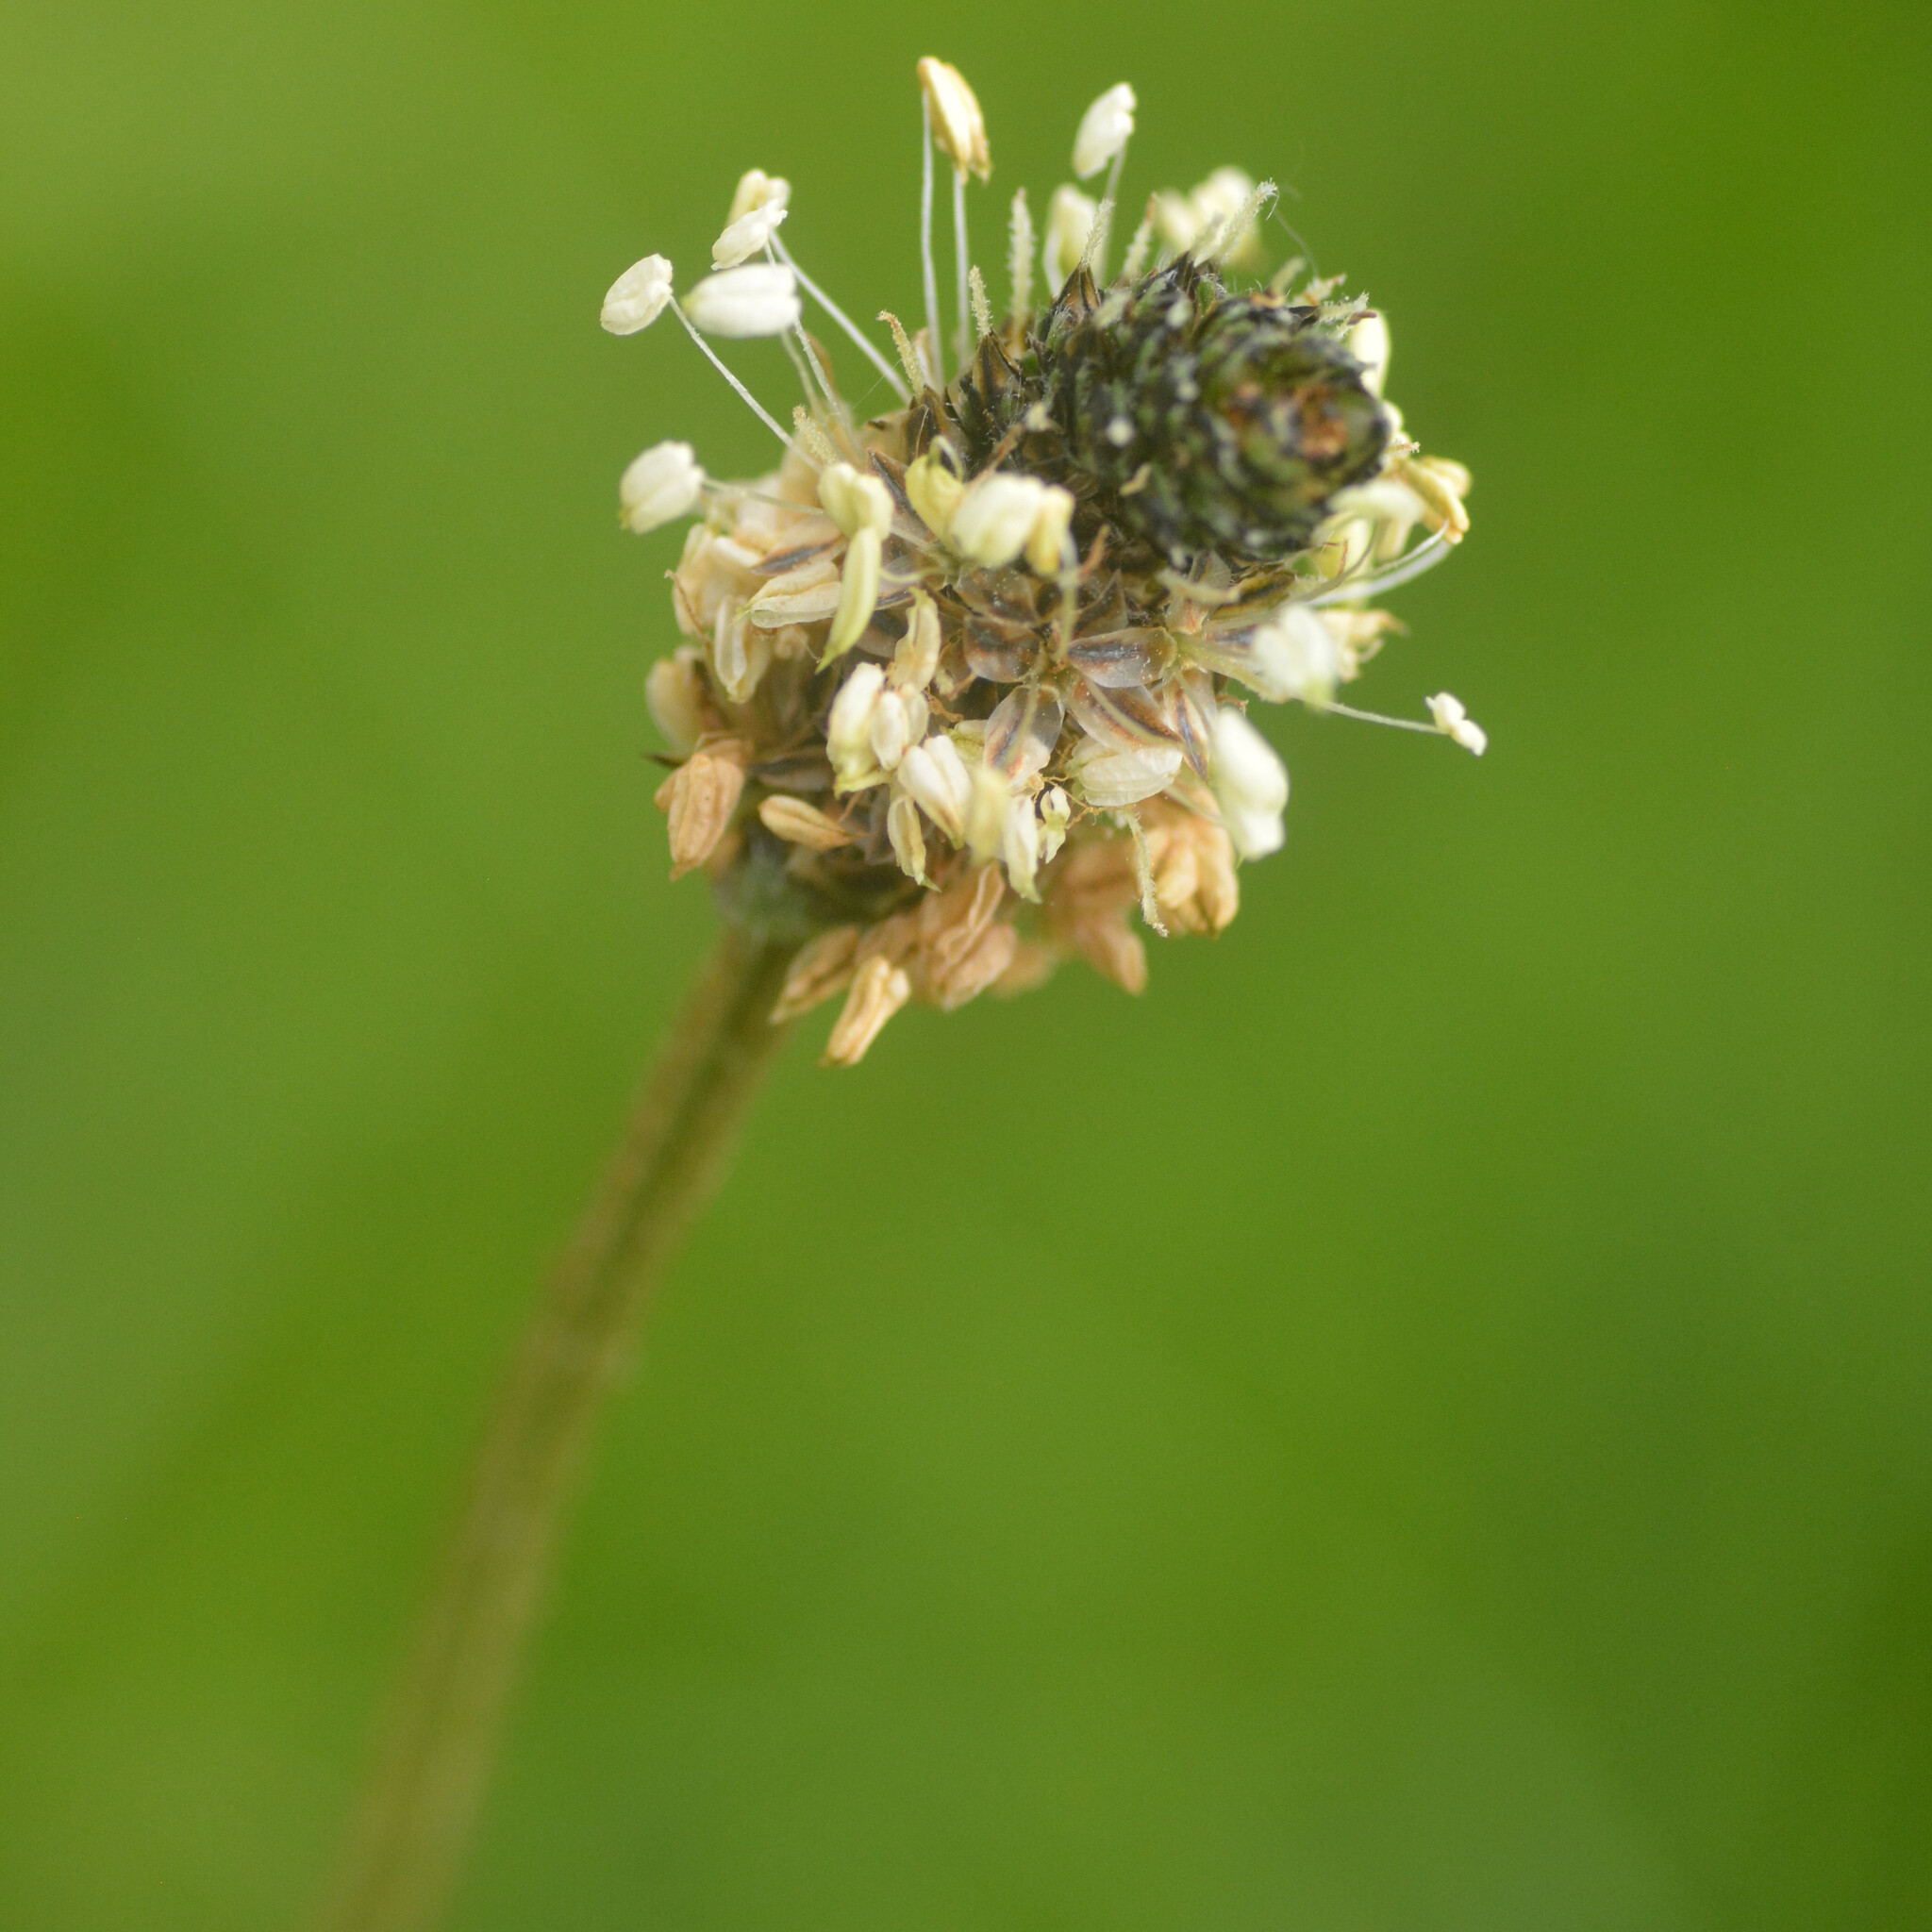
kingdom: Plantae
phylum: Tracheophyta
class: Magnoliopsida
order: Lamiales
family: Plantaginaceae
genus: Plantago
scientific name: Plantago lanceolata
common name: Ribwort plantain
